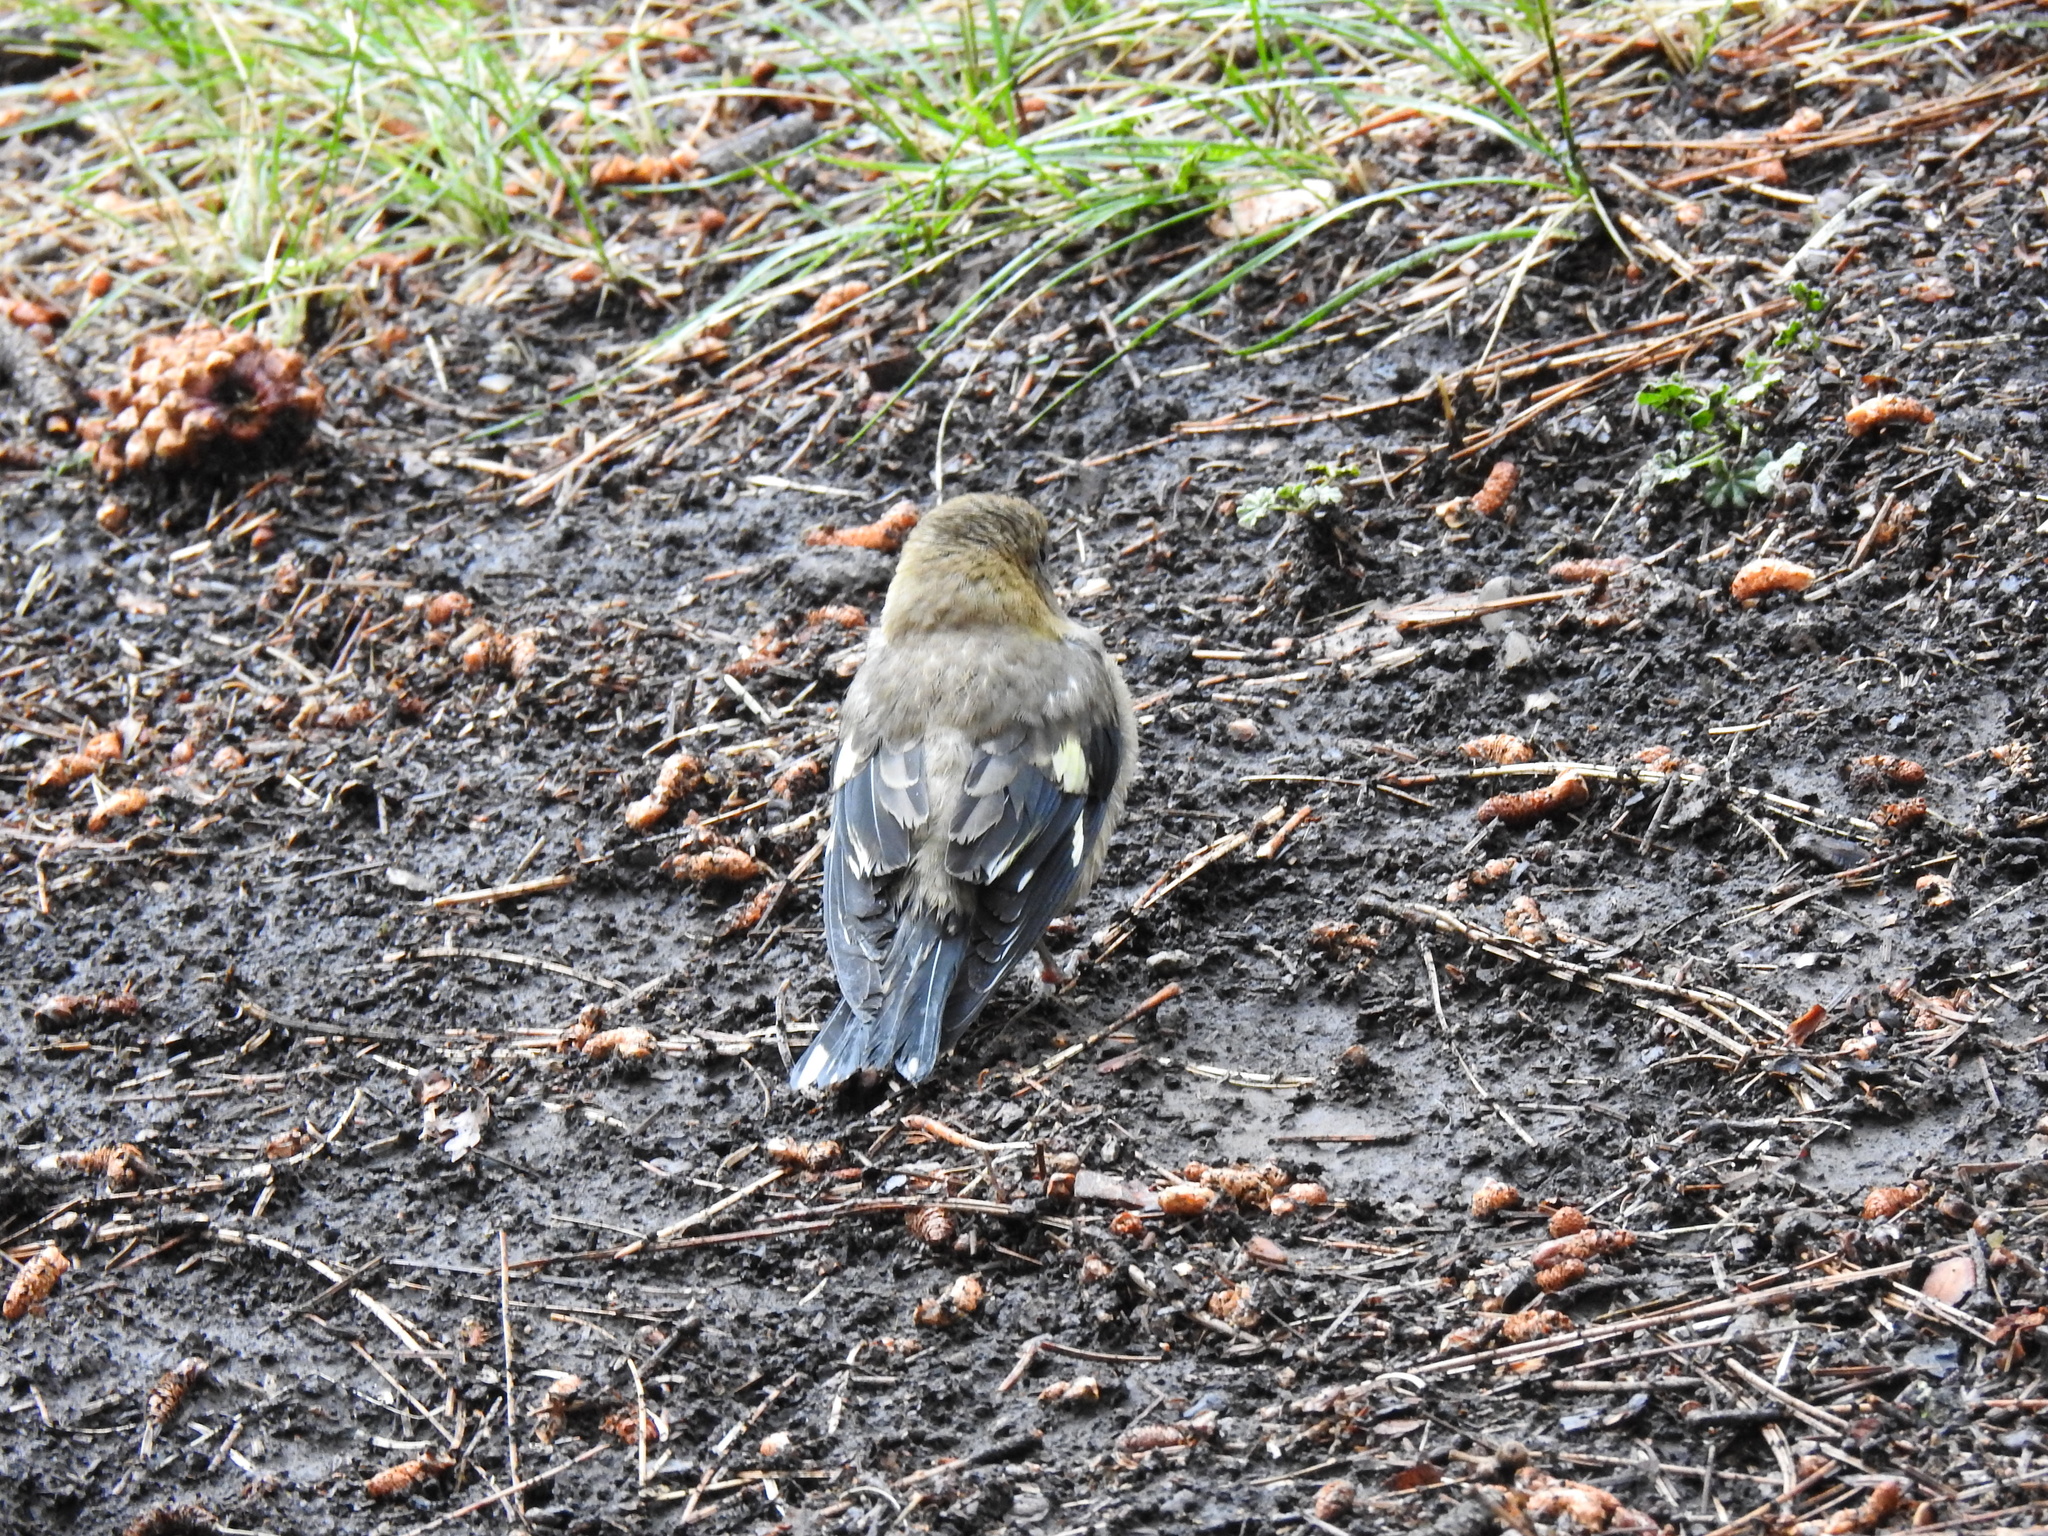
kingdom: Animalia
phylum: Chordata
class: Aves
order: Passeriformes
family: Fringillidae
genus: Hesperiphona
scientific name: Hesperiphona vespertina
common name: Evening grosbeak
